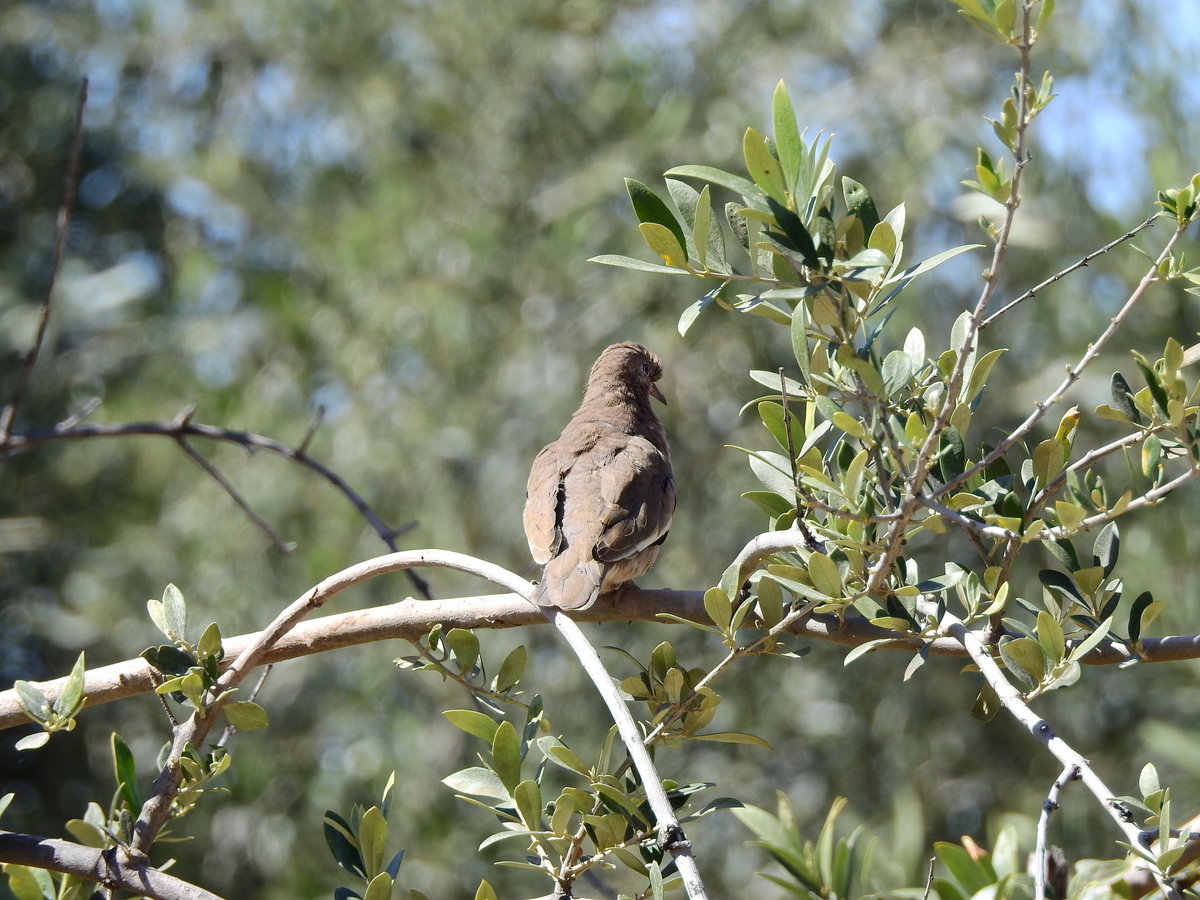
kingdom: Animalia
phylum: Chordata
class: Aves
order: Columbiformes
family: Columbidae
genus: Columbina
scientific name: Columbina picui
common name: Picui ground dove
